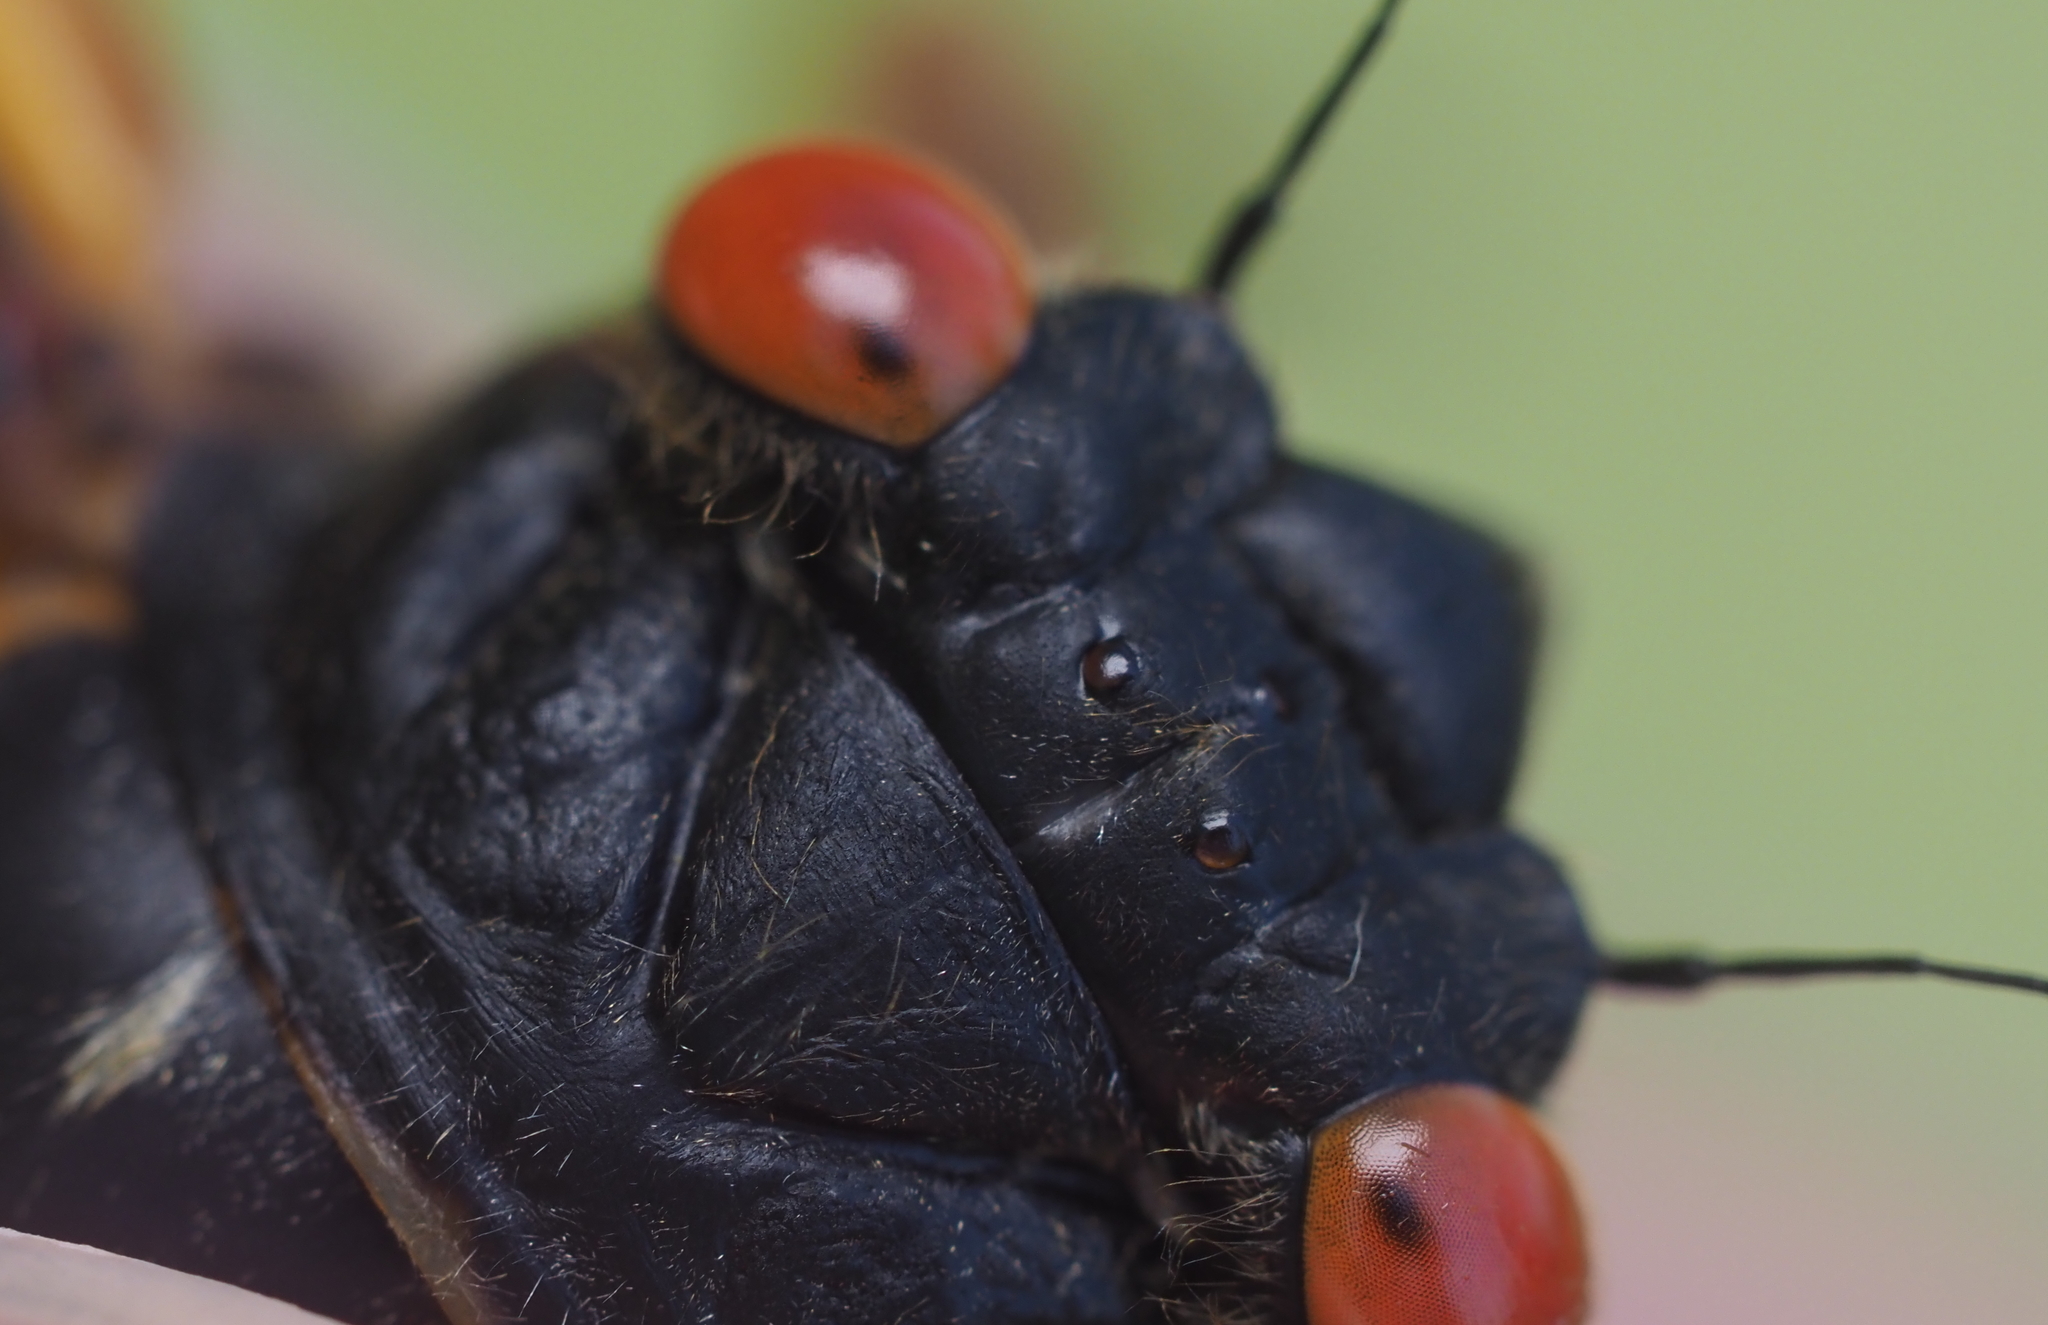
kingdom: Animalia
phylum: Arthropoda
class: Insecta
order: Hemiptera
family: Cicadidae
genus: Magicicada
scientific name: Magicicada septendecim
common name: Periodical cicada
